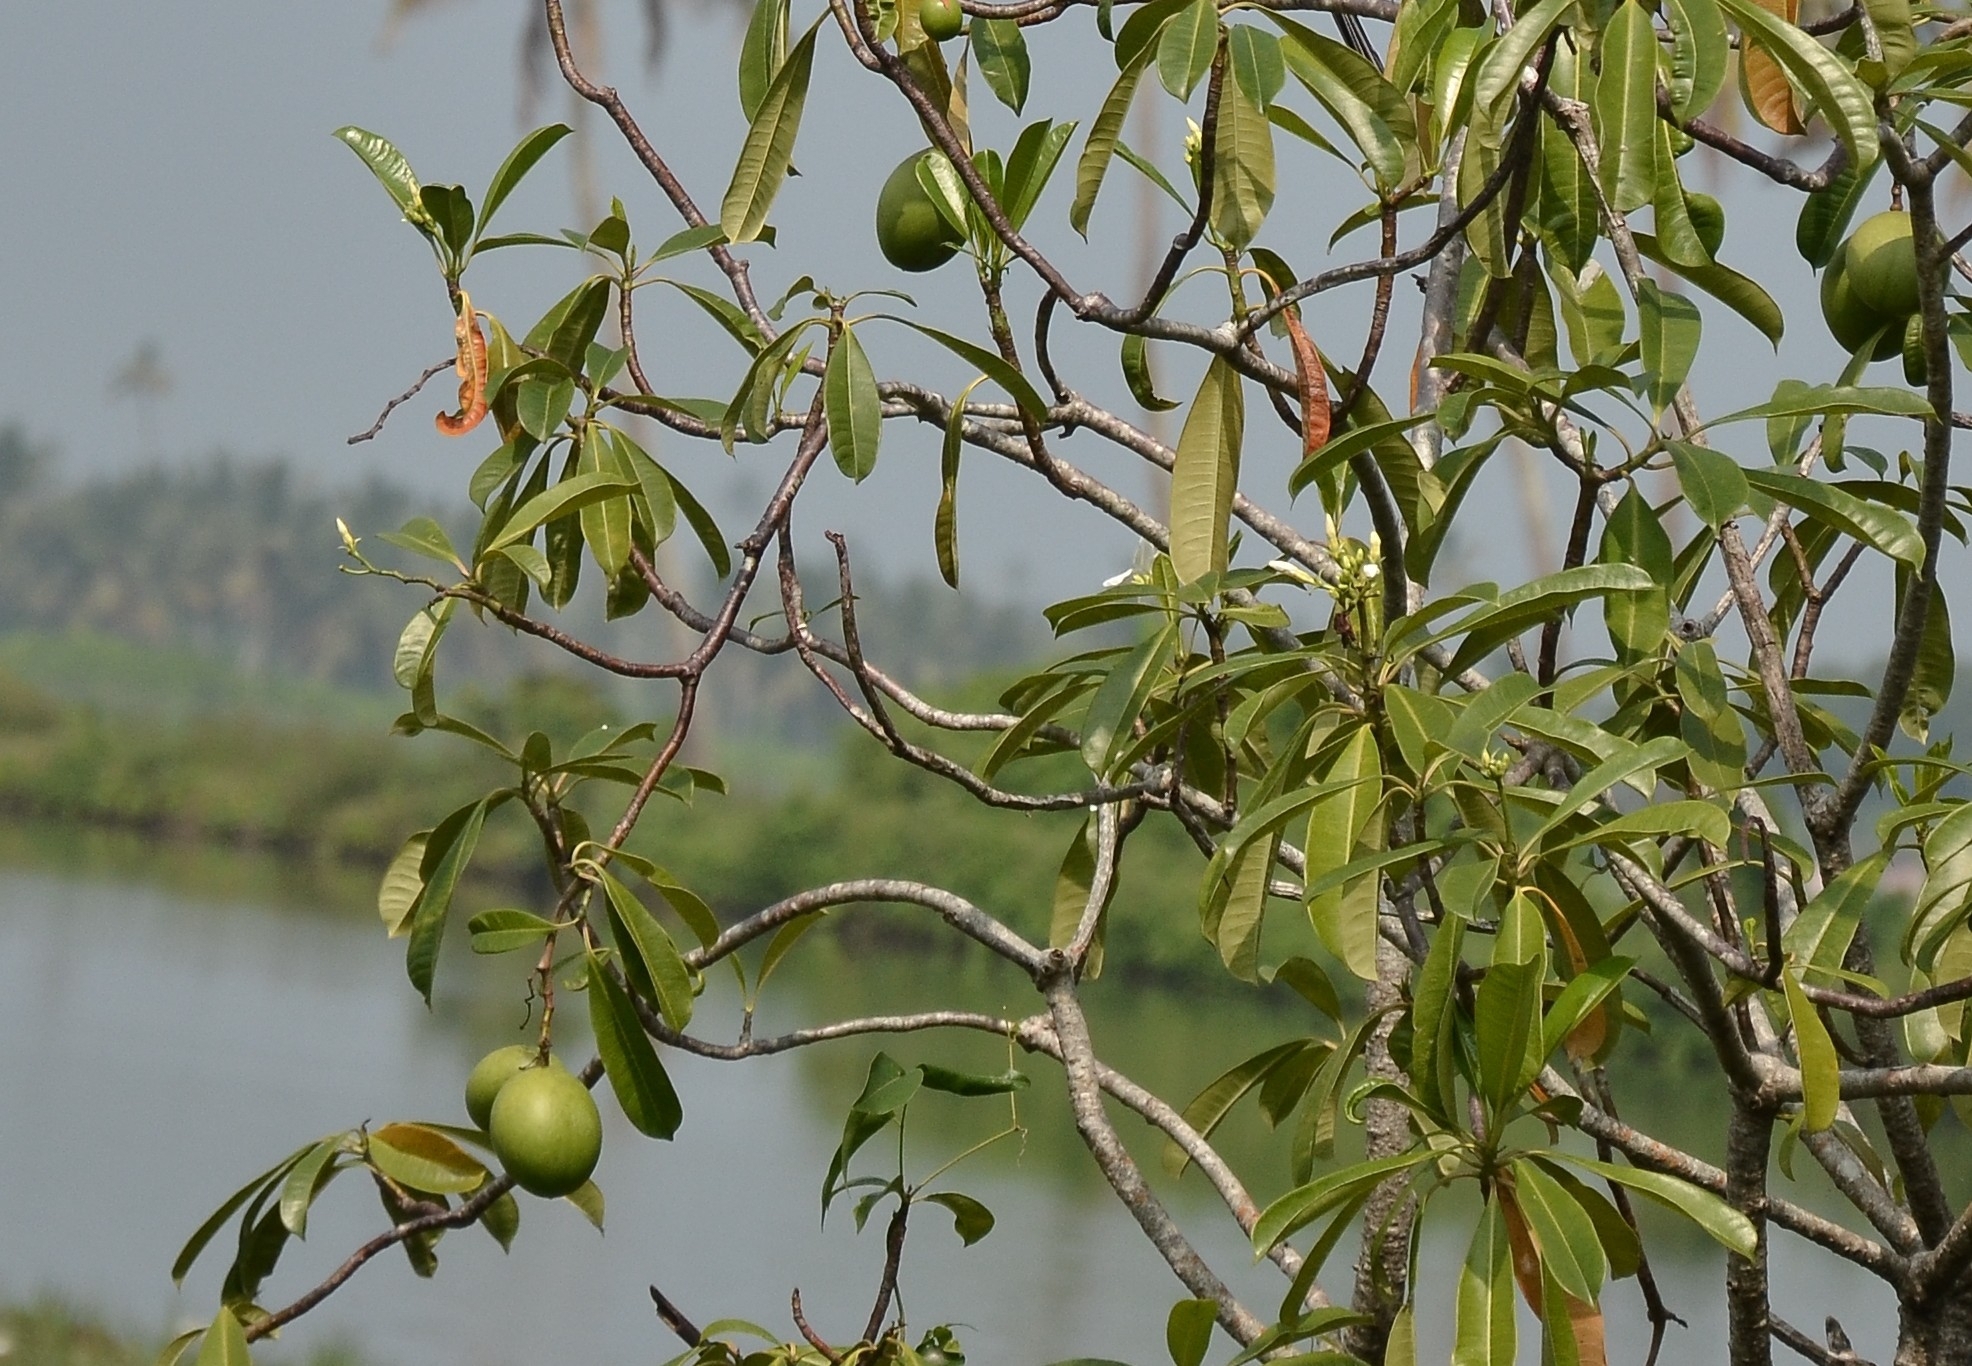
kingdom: Plantae
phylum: Tracheophyta
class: Magnoliopsida
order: Gentianales
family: Apocynaceae
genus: Cerbera
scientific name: Cerbera odollam
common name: Pong-pong
